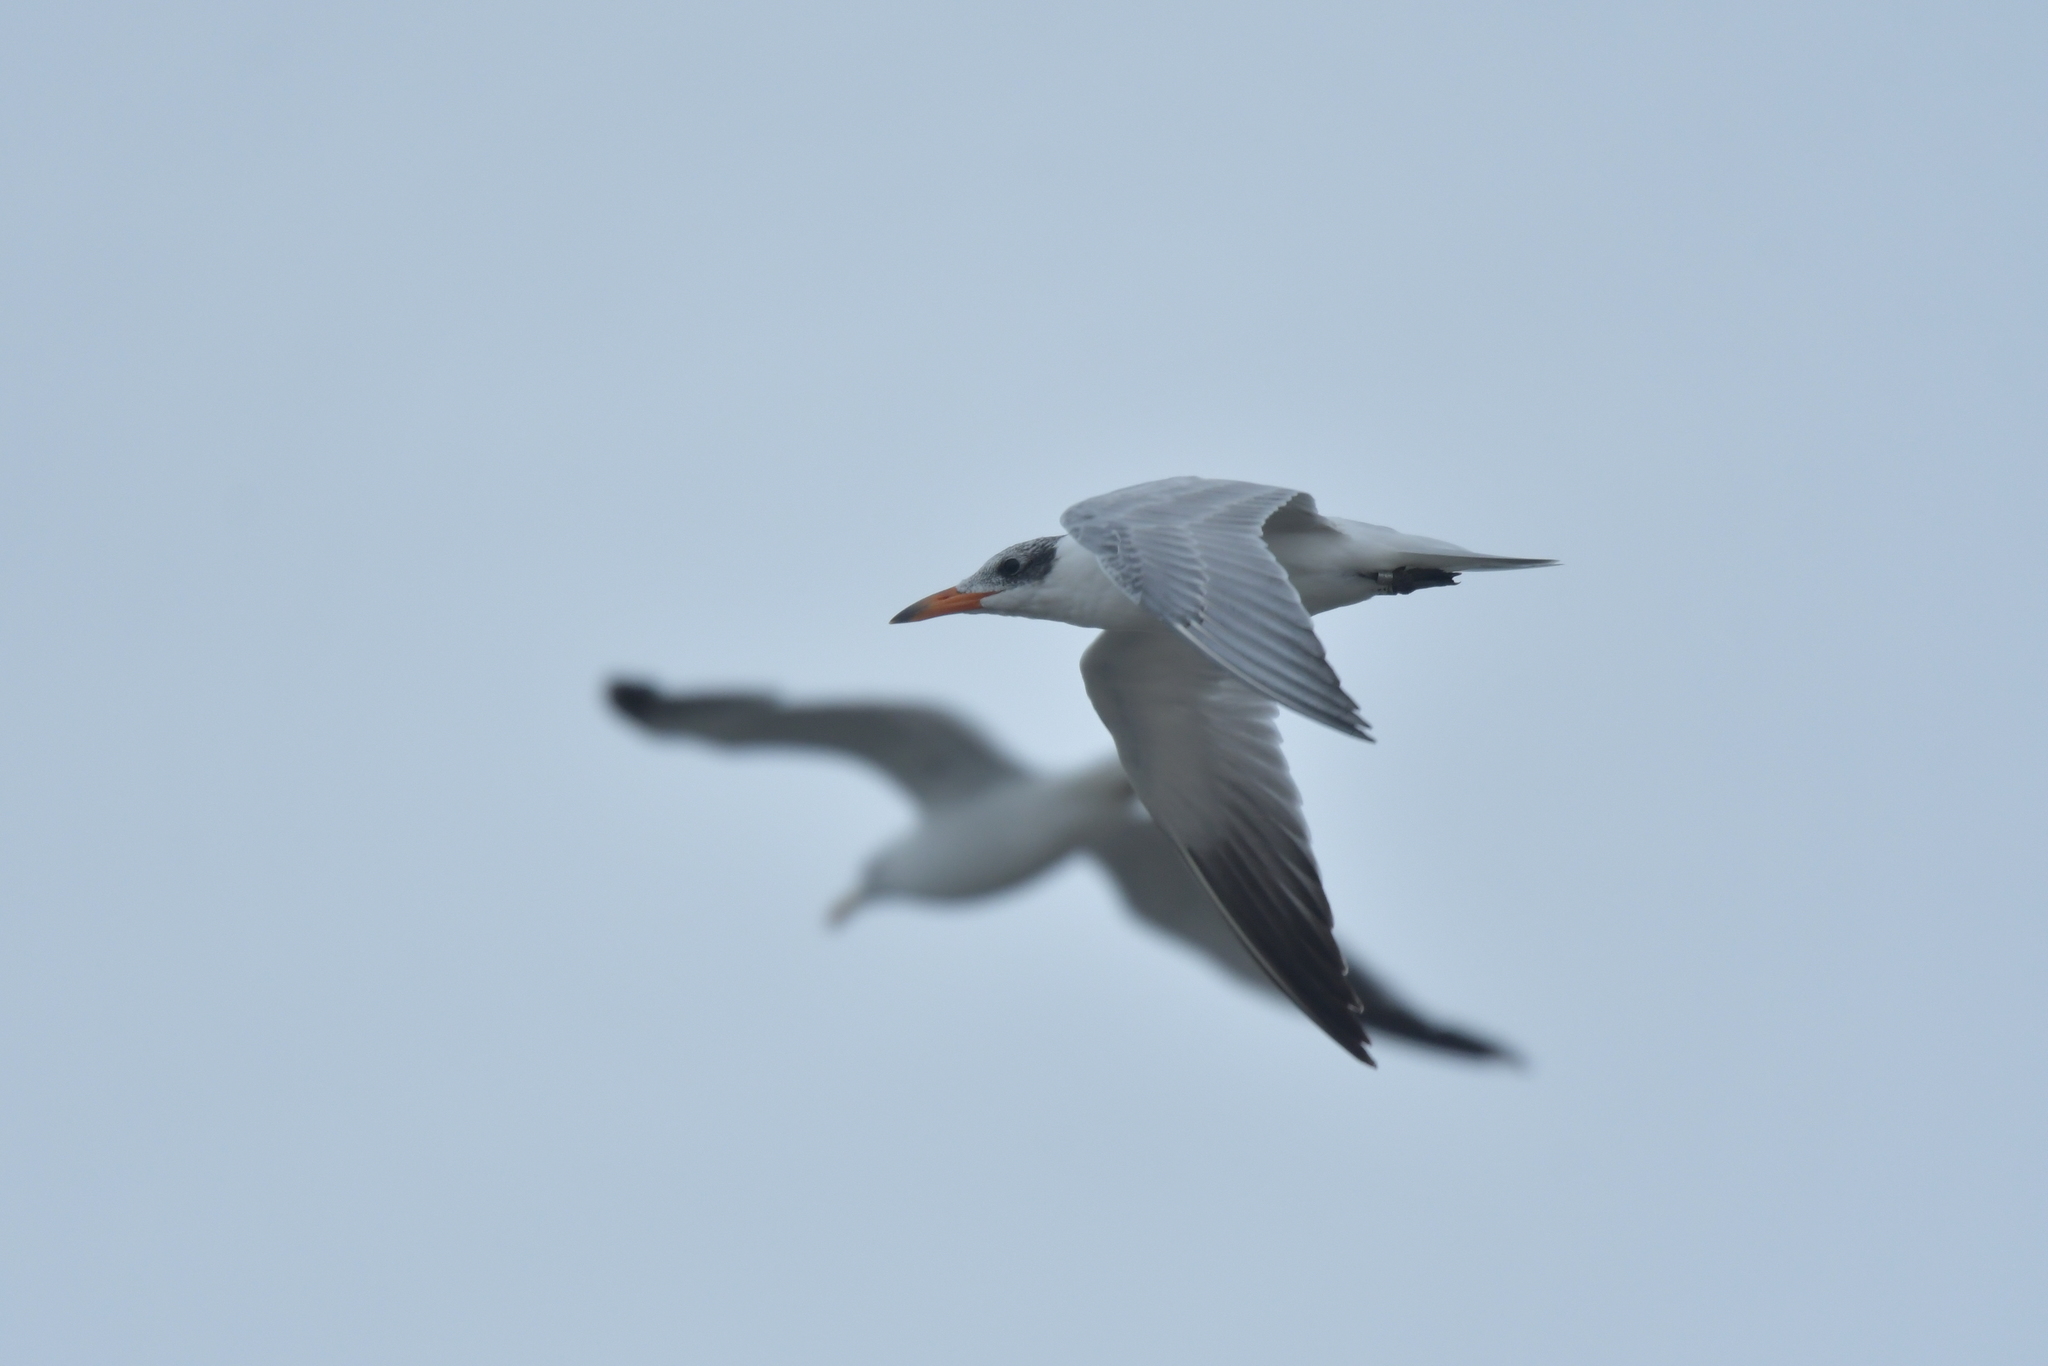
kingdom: Animalia
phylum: Chordata
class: Aves
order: Charadriiformes
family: Laridae
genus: Hydroprogne
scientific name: Hydroprogne caspia
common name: Caspian tern
